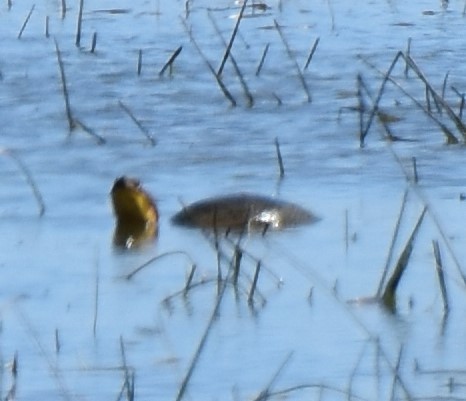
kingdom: Animalia
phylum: Chordata
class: Testudines
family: Emydidae
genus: Emys
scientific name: Emys blandingii
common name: Blanding's turtle
